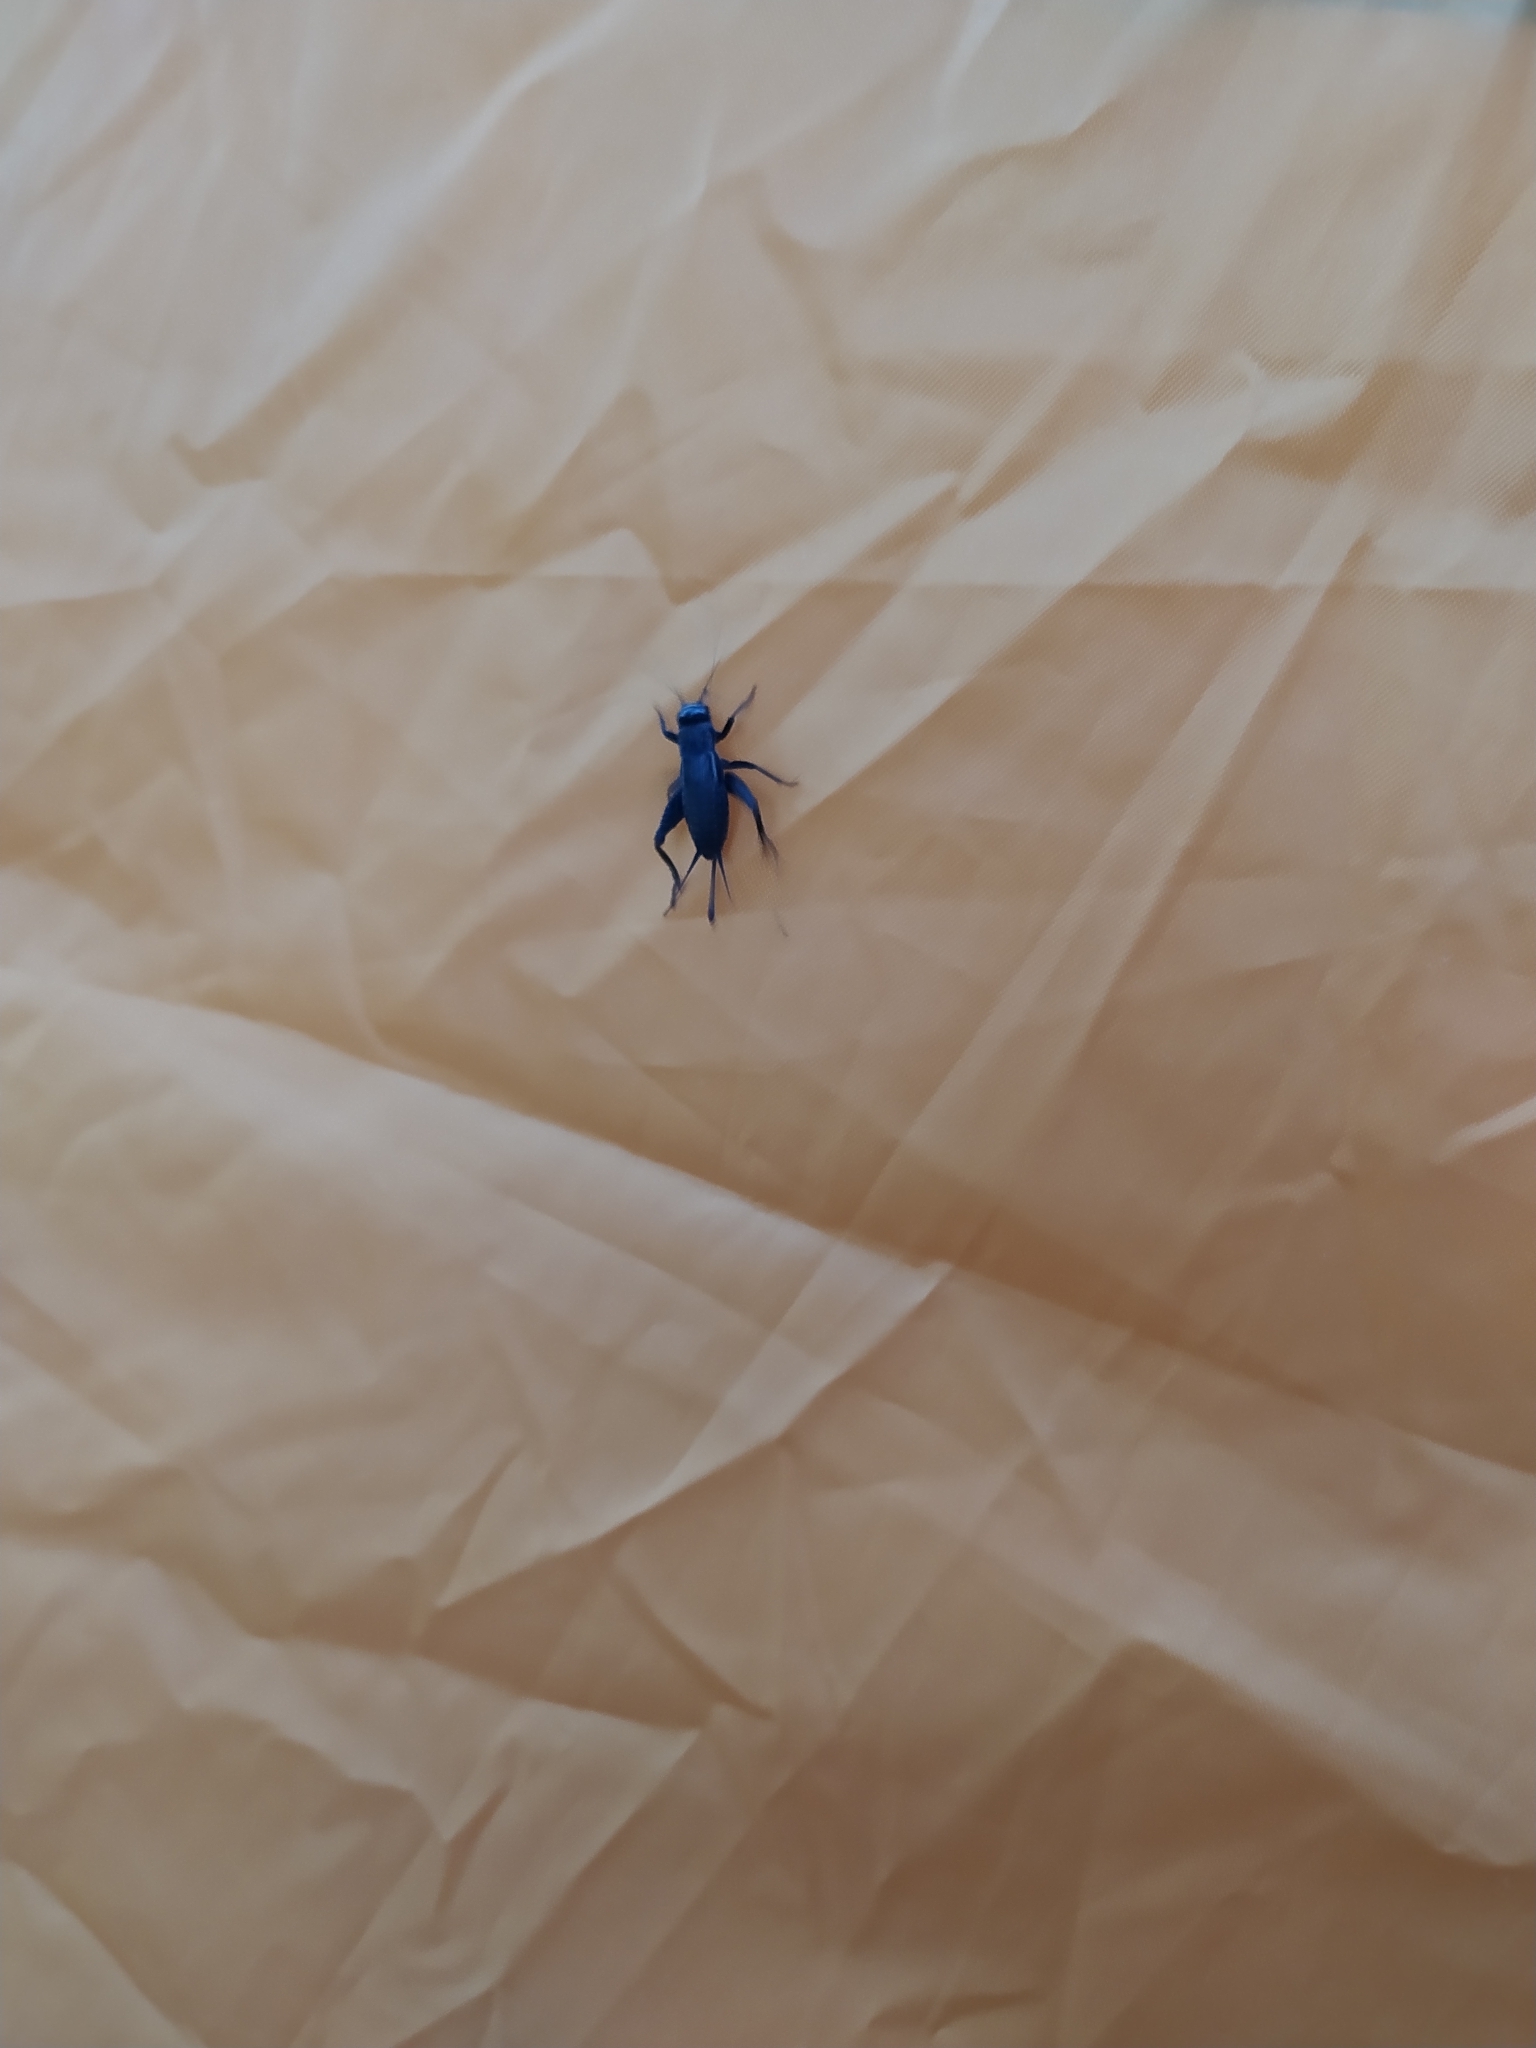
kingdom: Animalia
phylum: Arthropoda
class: Insecta
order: Orthoptera
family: Gryllidae
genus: Modicogryllus
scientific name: Modicogryllus frontalis
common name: Eastern cricket
